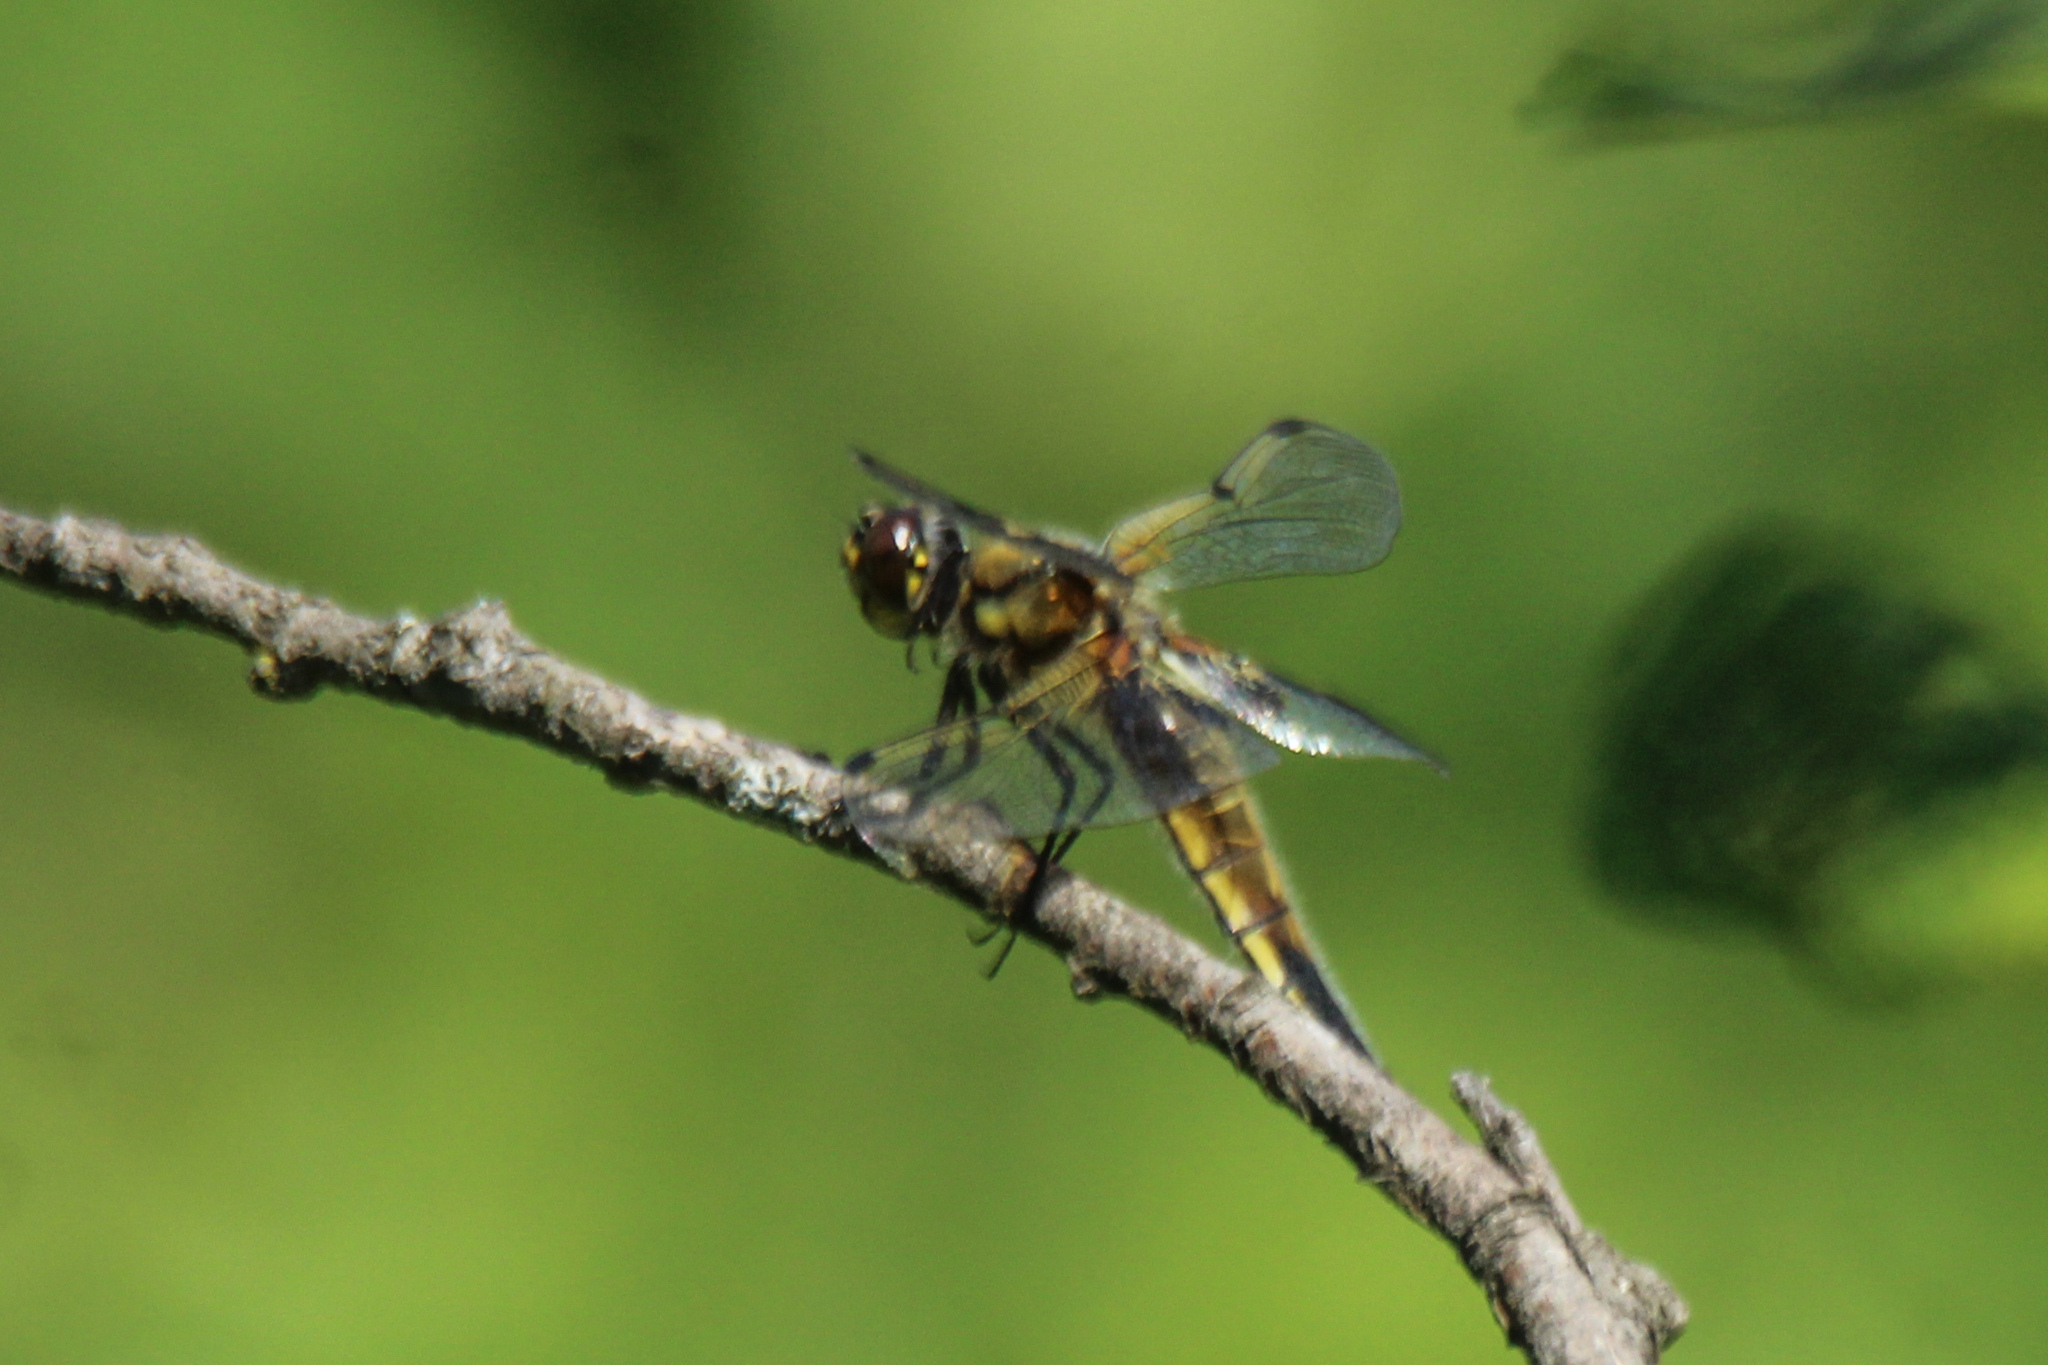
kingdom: Animalia
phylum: Arthropoda
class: Insecta
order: Odonata
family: Libellulidae
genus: Libellula
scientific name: Libellula quadrimaculata
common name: Four-spotted chaser
